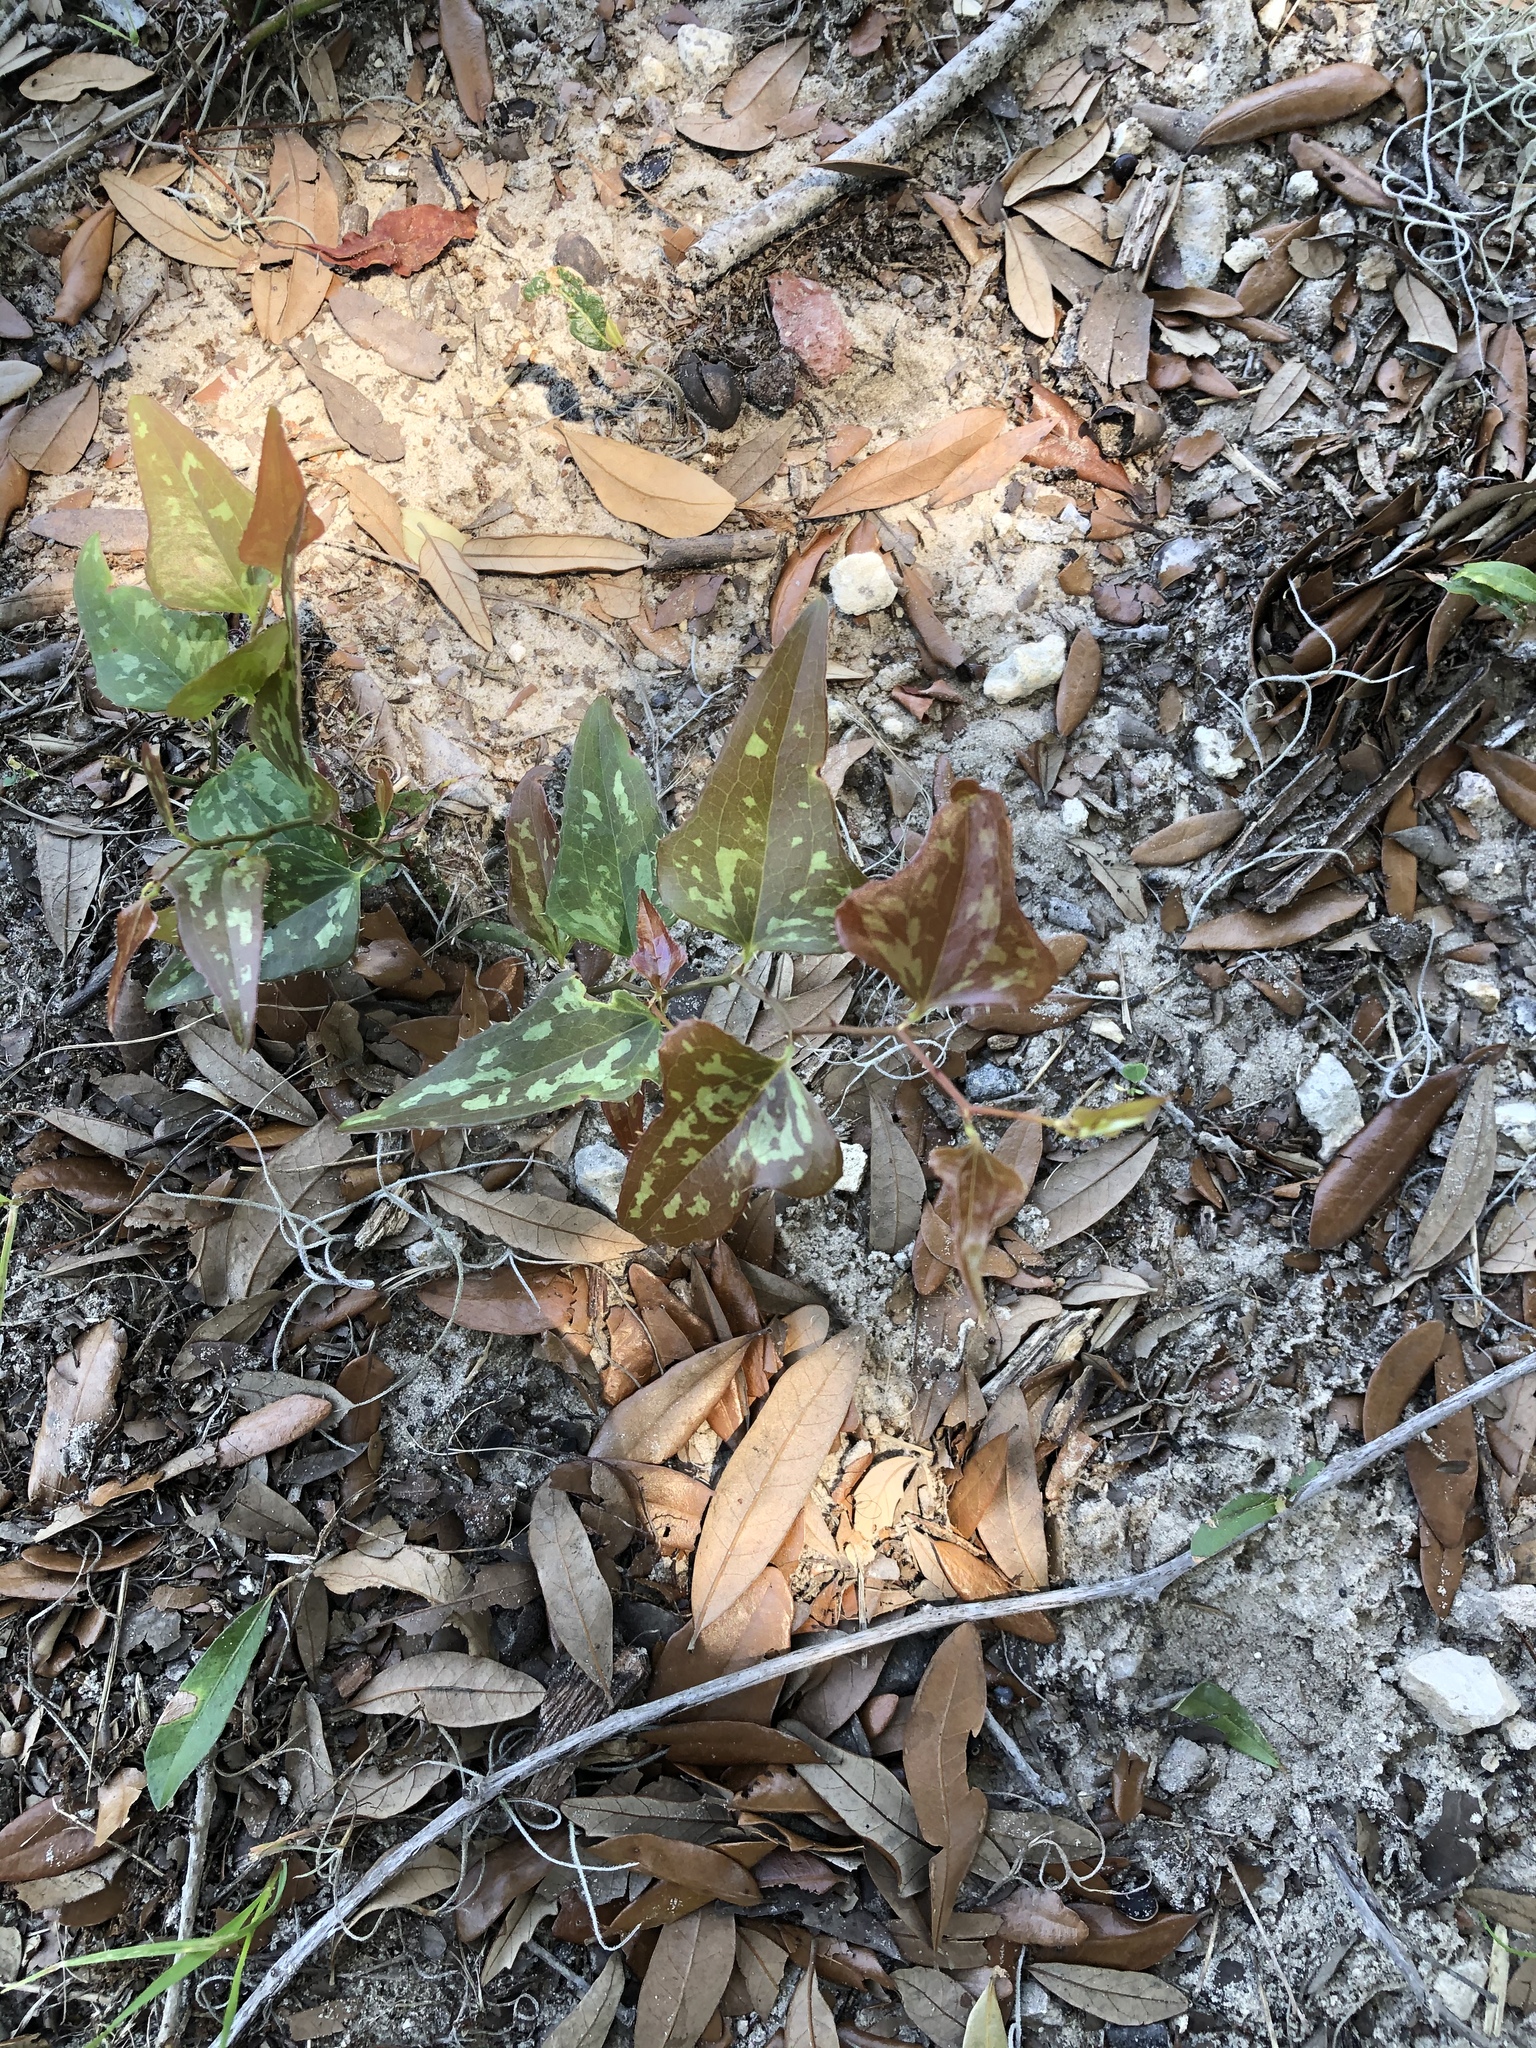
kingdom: Plantae
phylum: Tracheophyta
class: Liliopsida
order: Liliales
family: Smilacaceae
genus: Smilax
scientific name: Smilax bona-nox
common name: Catbrier
